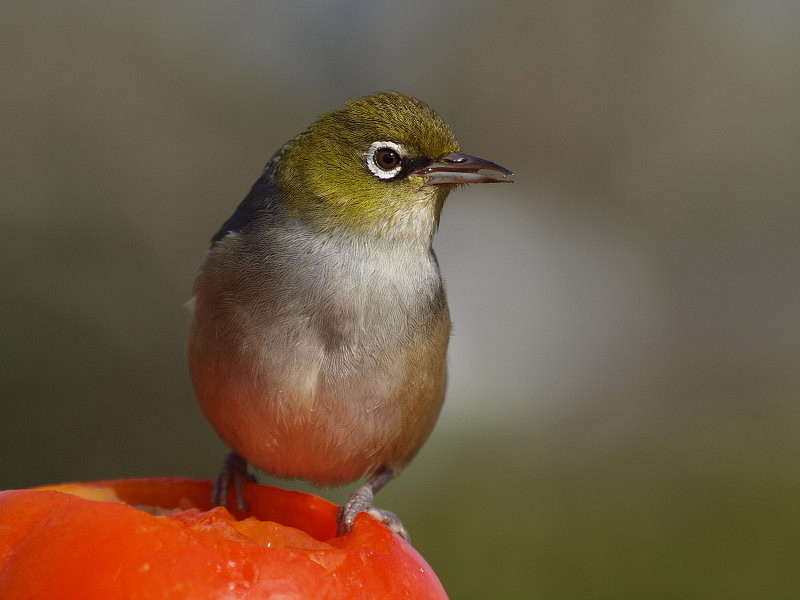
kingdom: Animalia
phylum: Chordata
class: Aves
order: Passeriformes
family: Zosteropidae
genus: Zosterops
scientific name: Zosterops lateralis
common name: Silvereye
